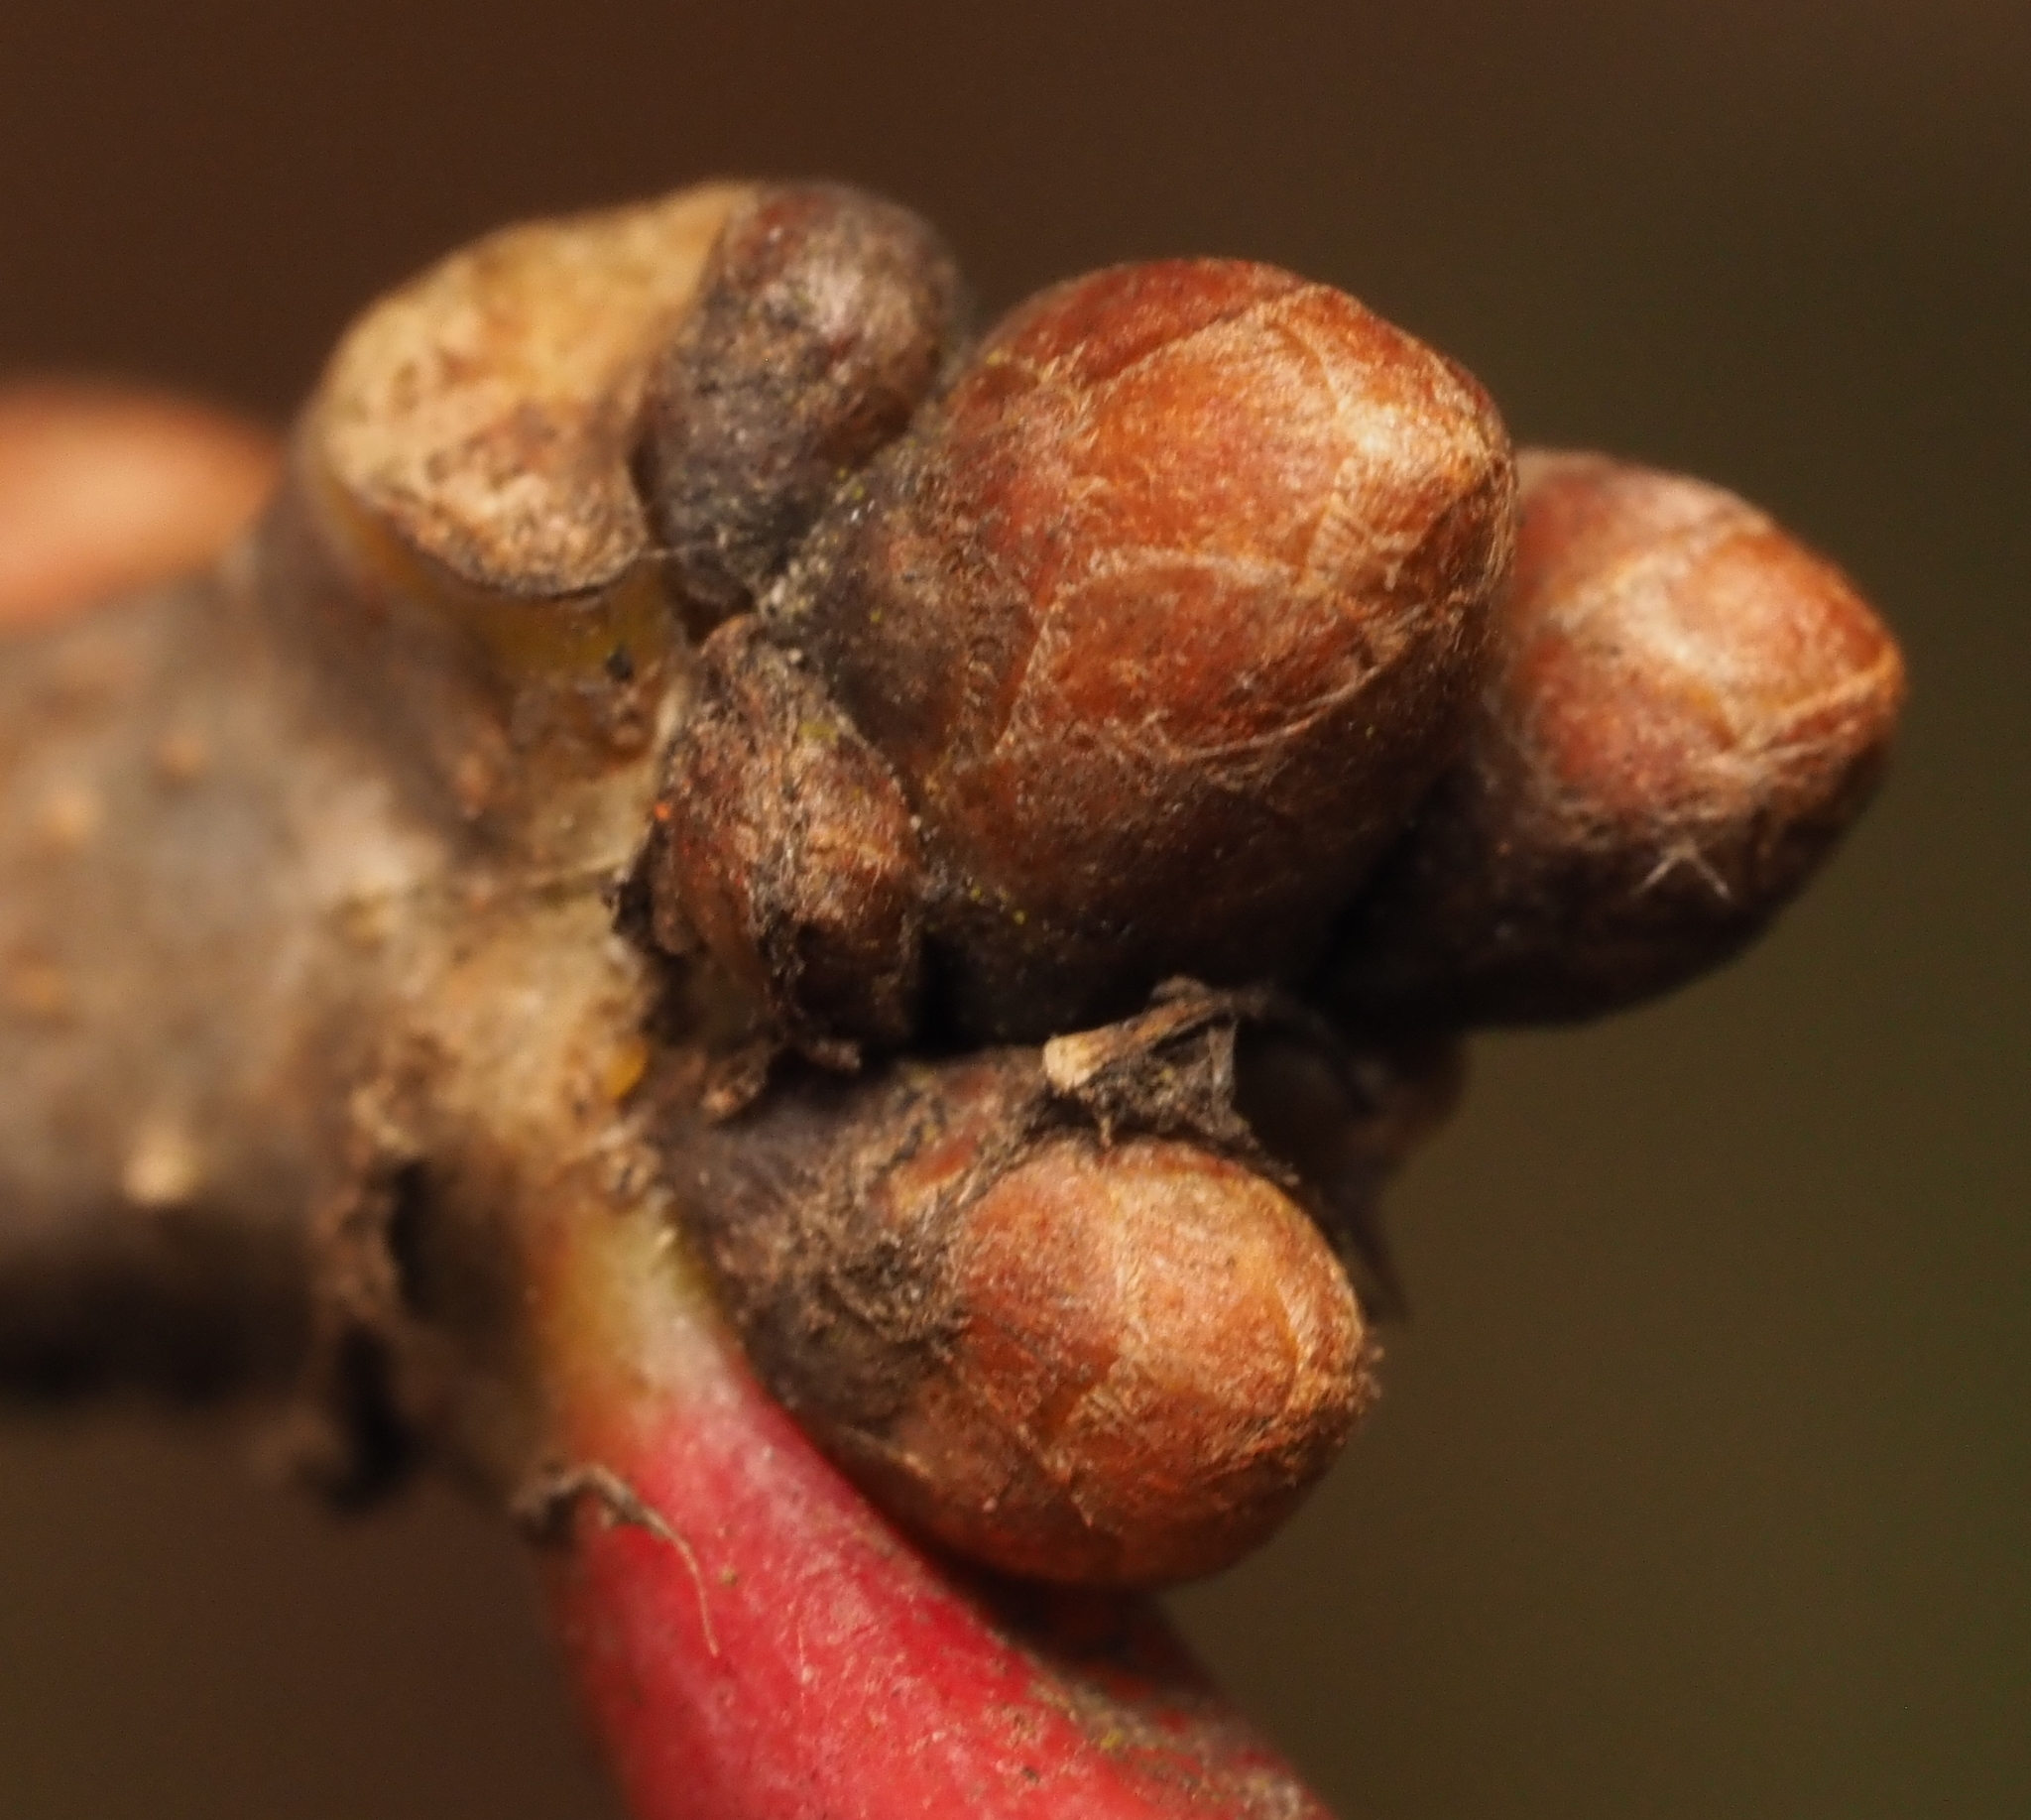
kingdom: Plantae
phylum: Tracheophyta
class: Magnoliopsida
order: Fagales
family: Fagaceae
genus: Quercus
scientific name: Quercus alba
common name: White oak
